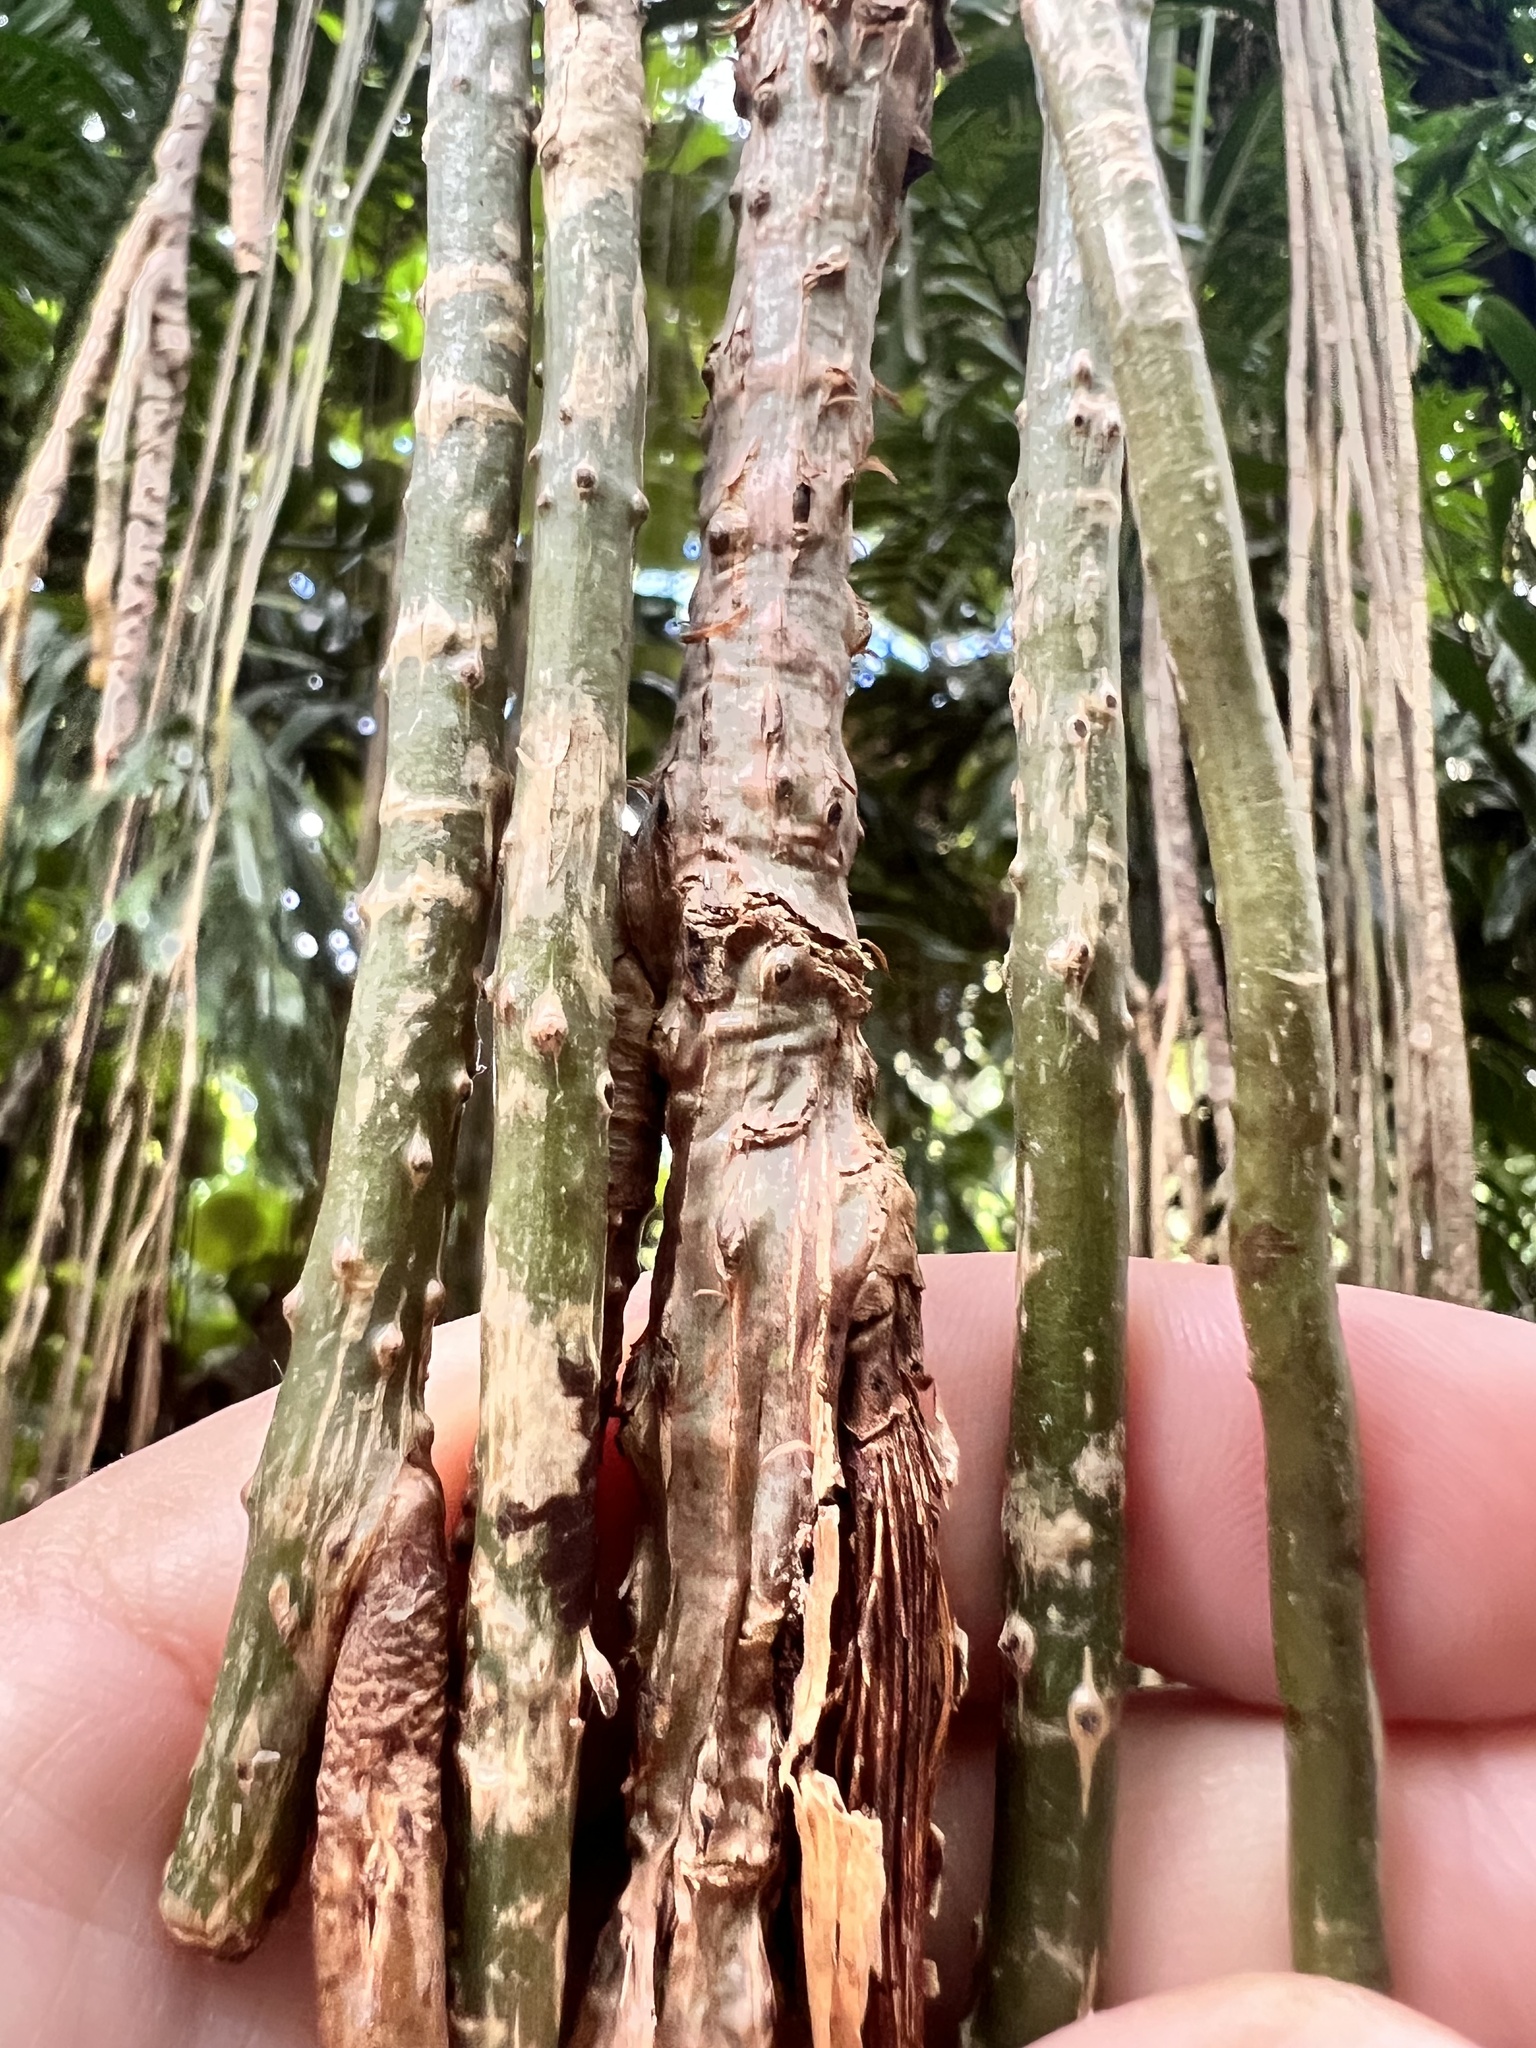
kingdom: Plantae
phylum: Tracheophyta
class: Magnoliopsida
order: Caryophyllales
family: Cactaceae
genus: Selenicereus
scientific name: Selenicereus undatus
